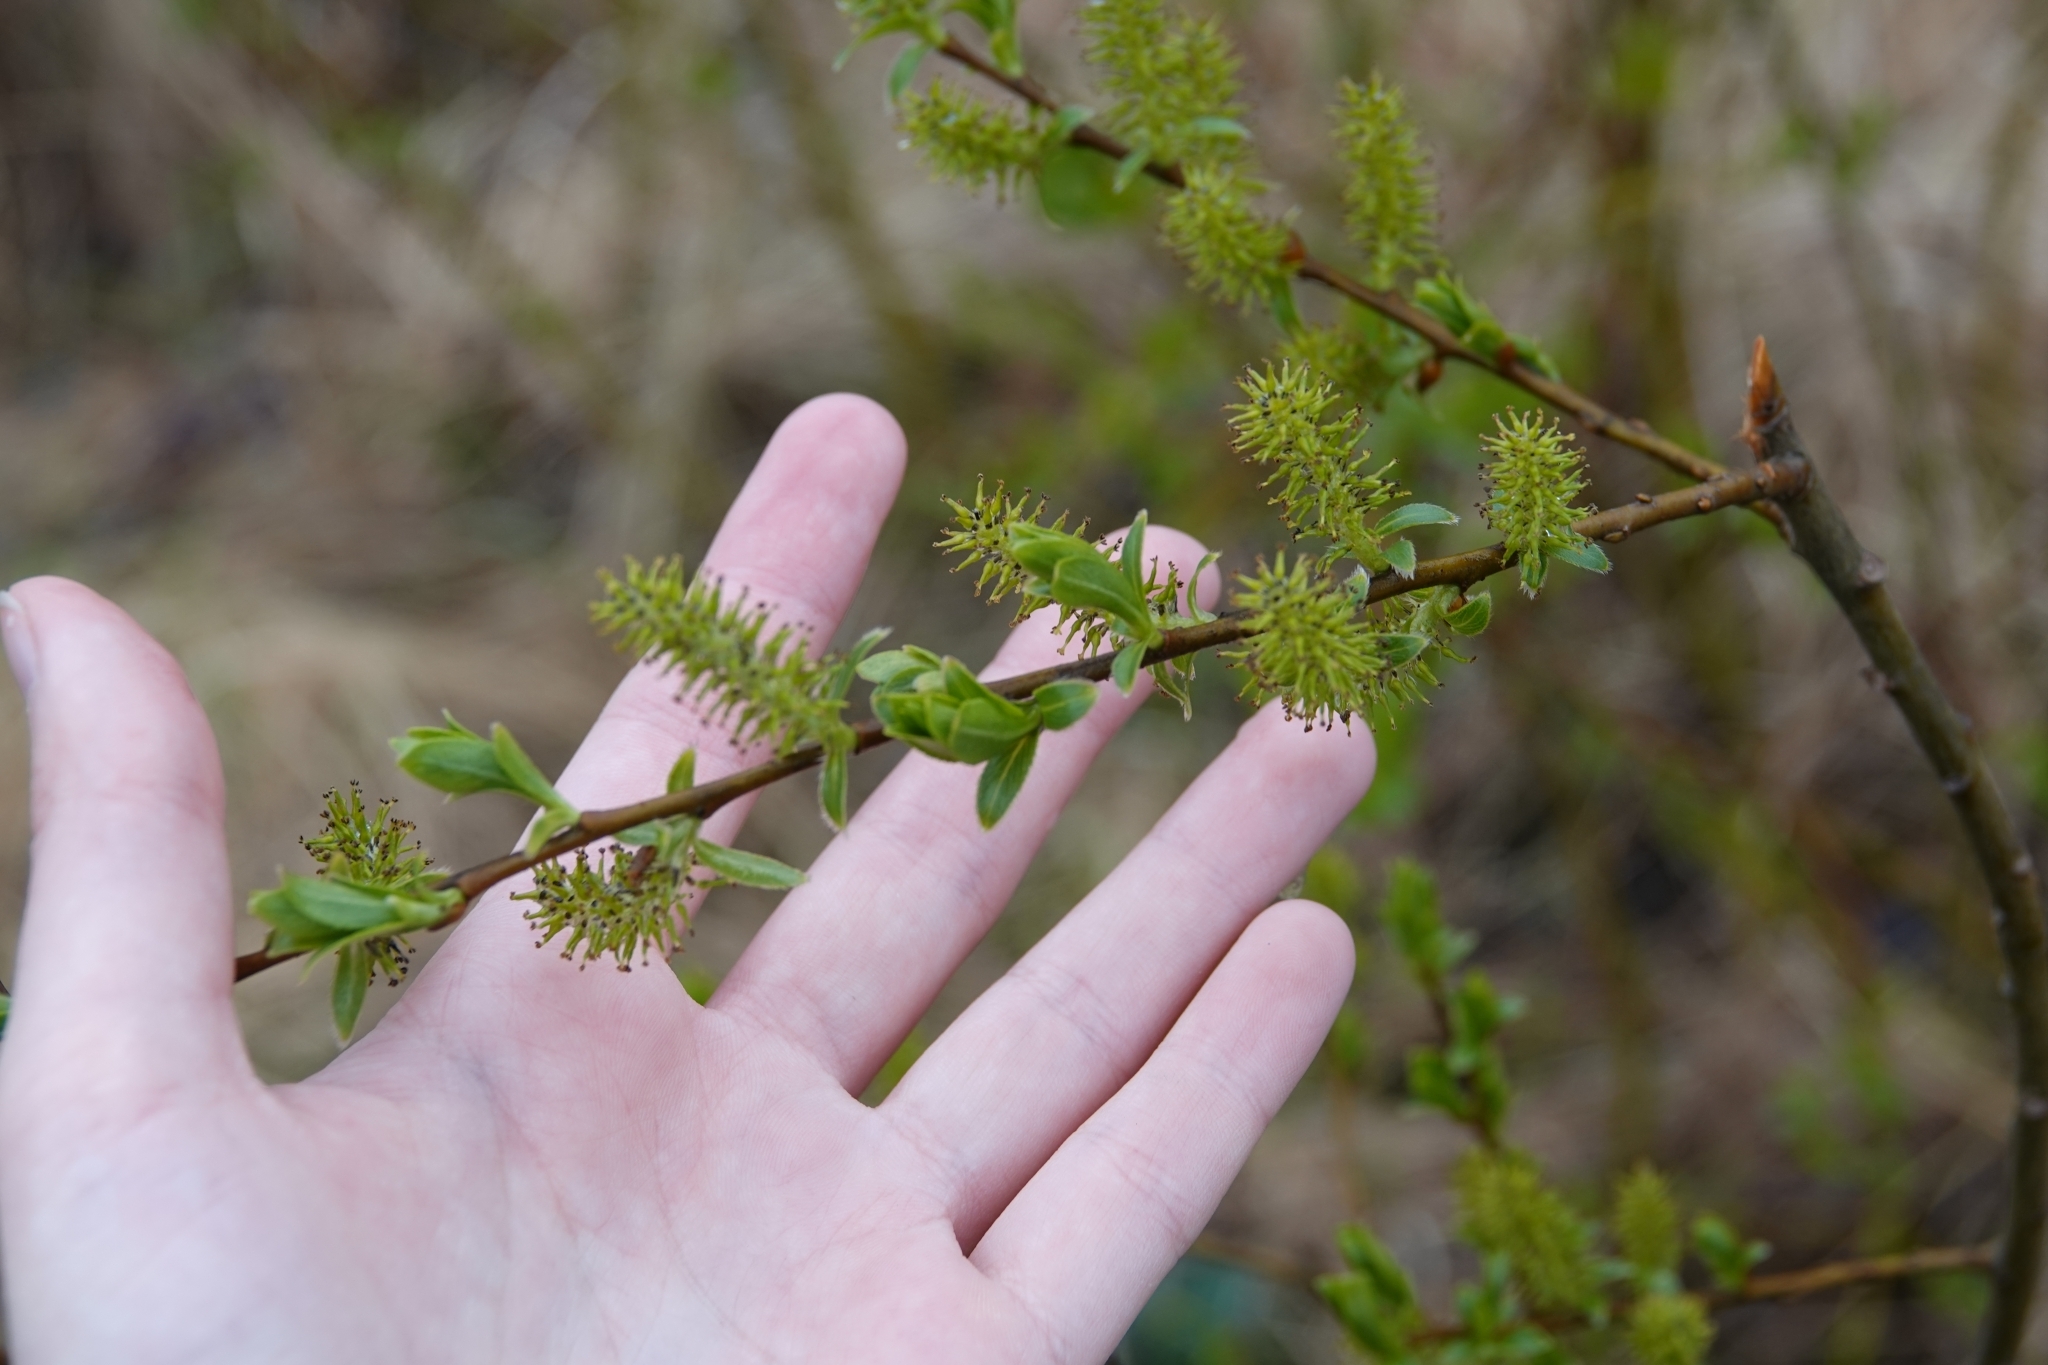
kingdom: Plantae
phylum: Tracheophyta
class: Magnoliopsida
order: Malpighiales
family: Salicaceae
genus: Salix
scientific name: Salix myrsinifolia
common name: Dark-leaved willow
